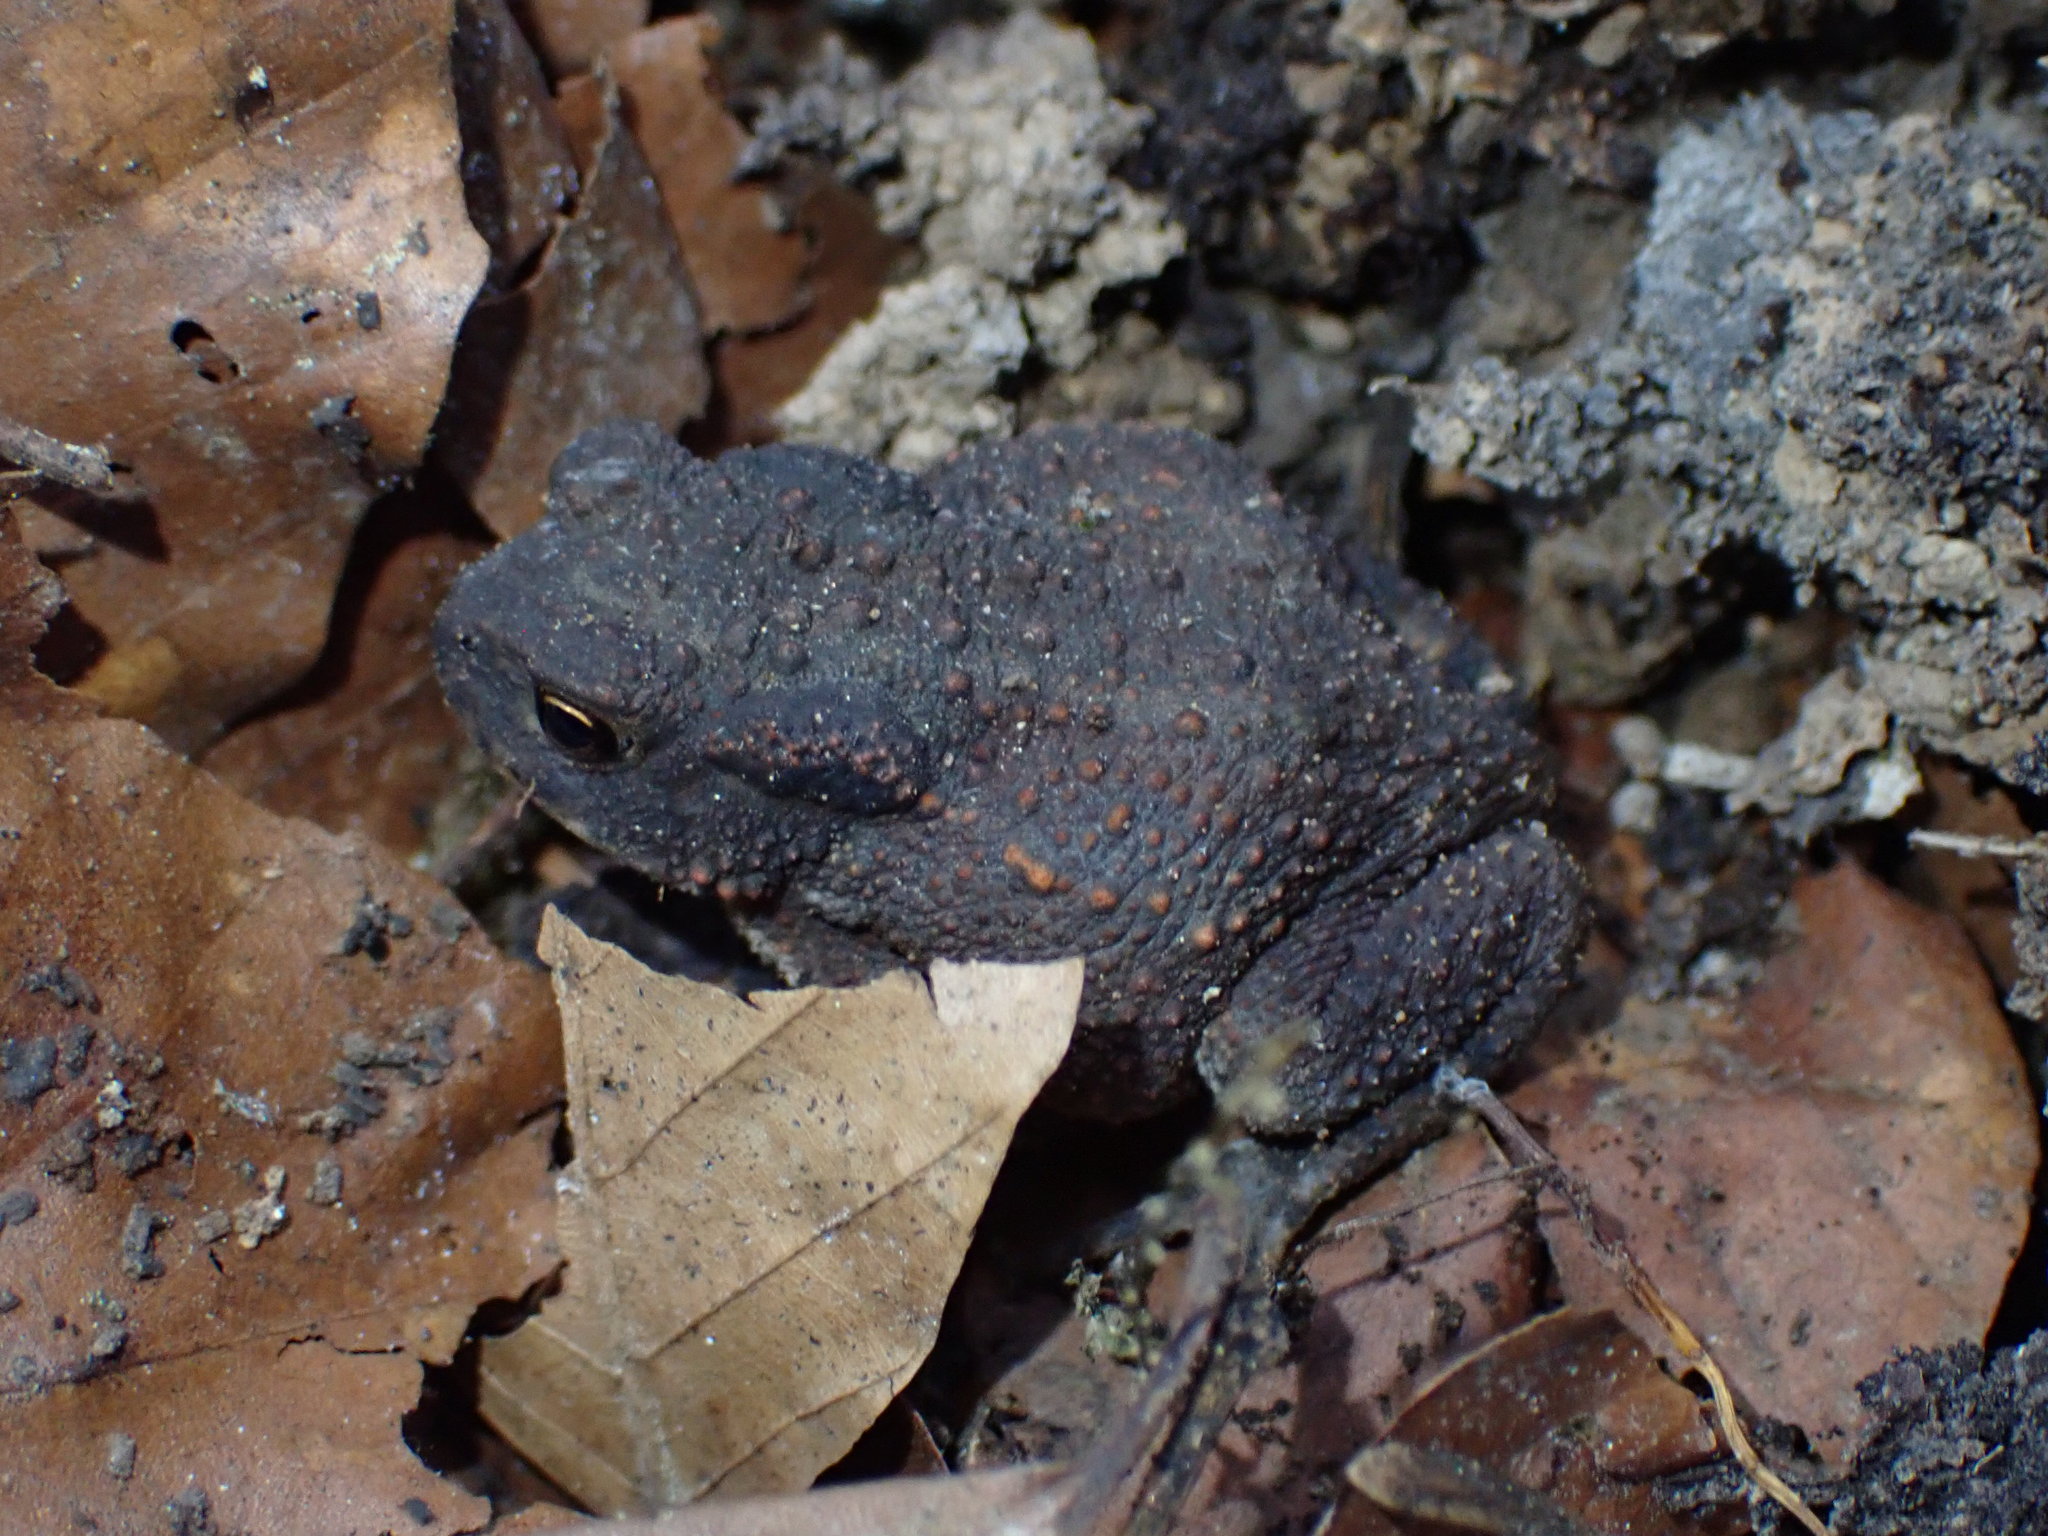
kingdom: Animalia
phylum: Chordata
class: Amphibia
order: Anura
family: Bufonidae
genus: Bufo
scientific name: Bufo bufo
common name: Common toad
